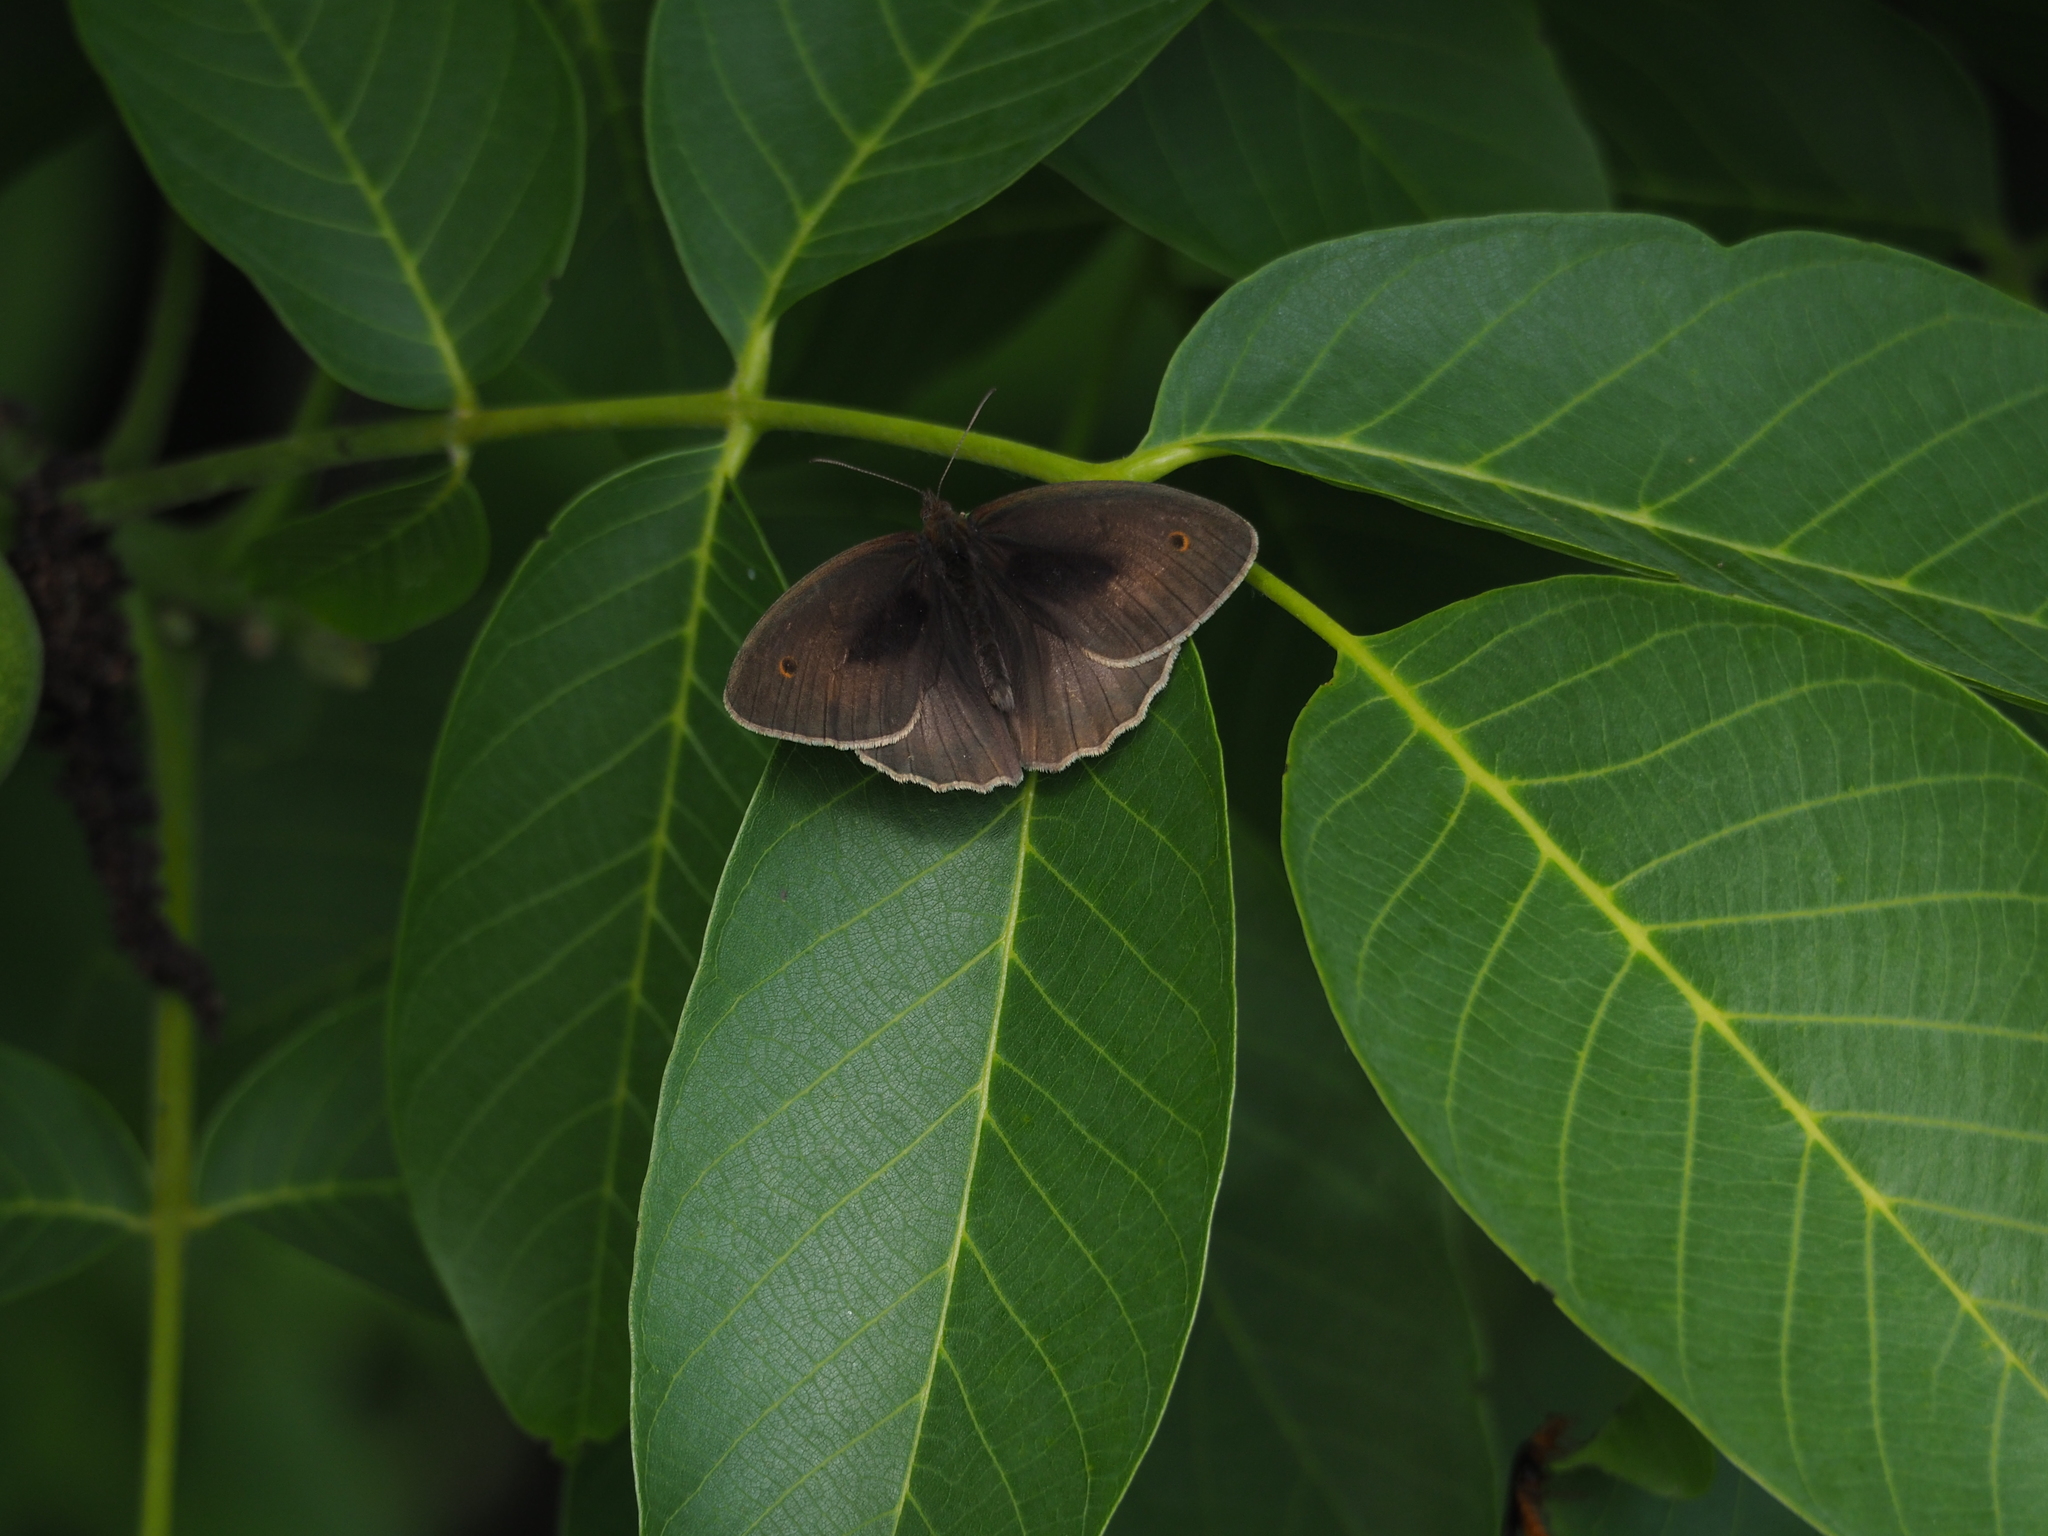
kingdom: Animalia
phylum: Arthropoda
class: Insecta
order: Lepidoptera
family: Nymphalidae
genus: Maniola
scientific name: Maniola jurtina
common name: Meadow brown
